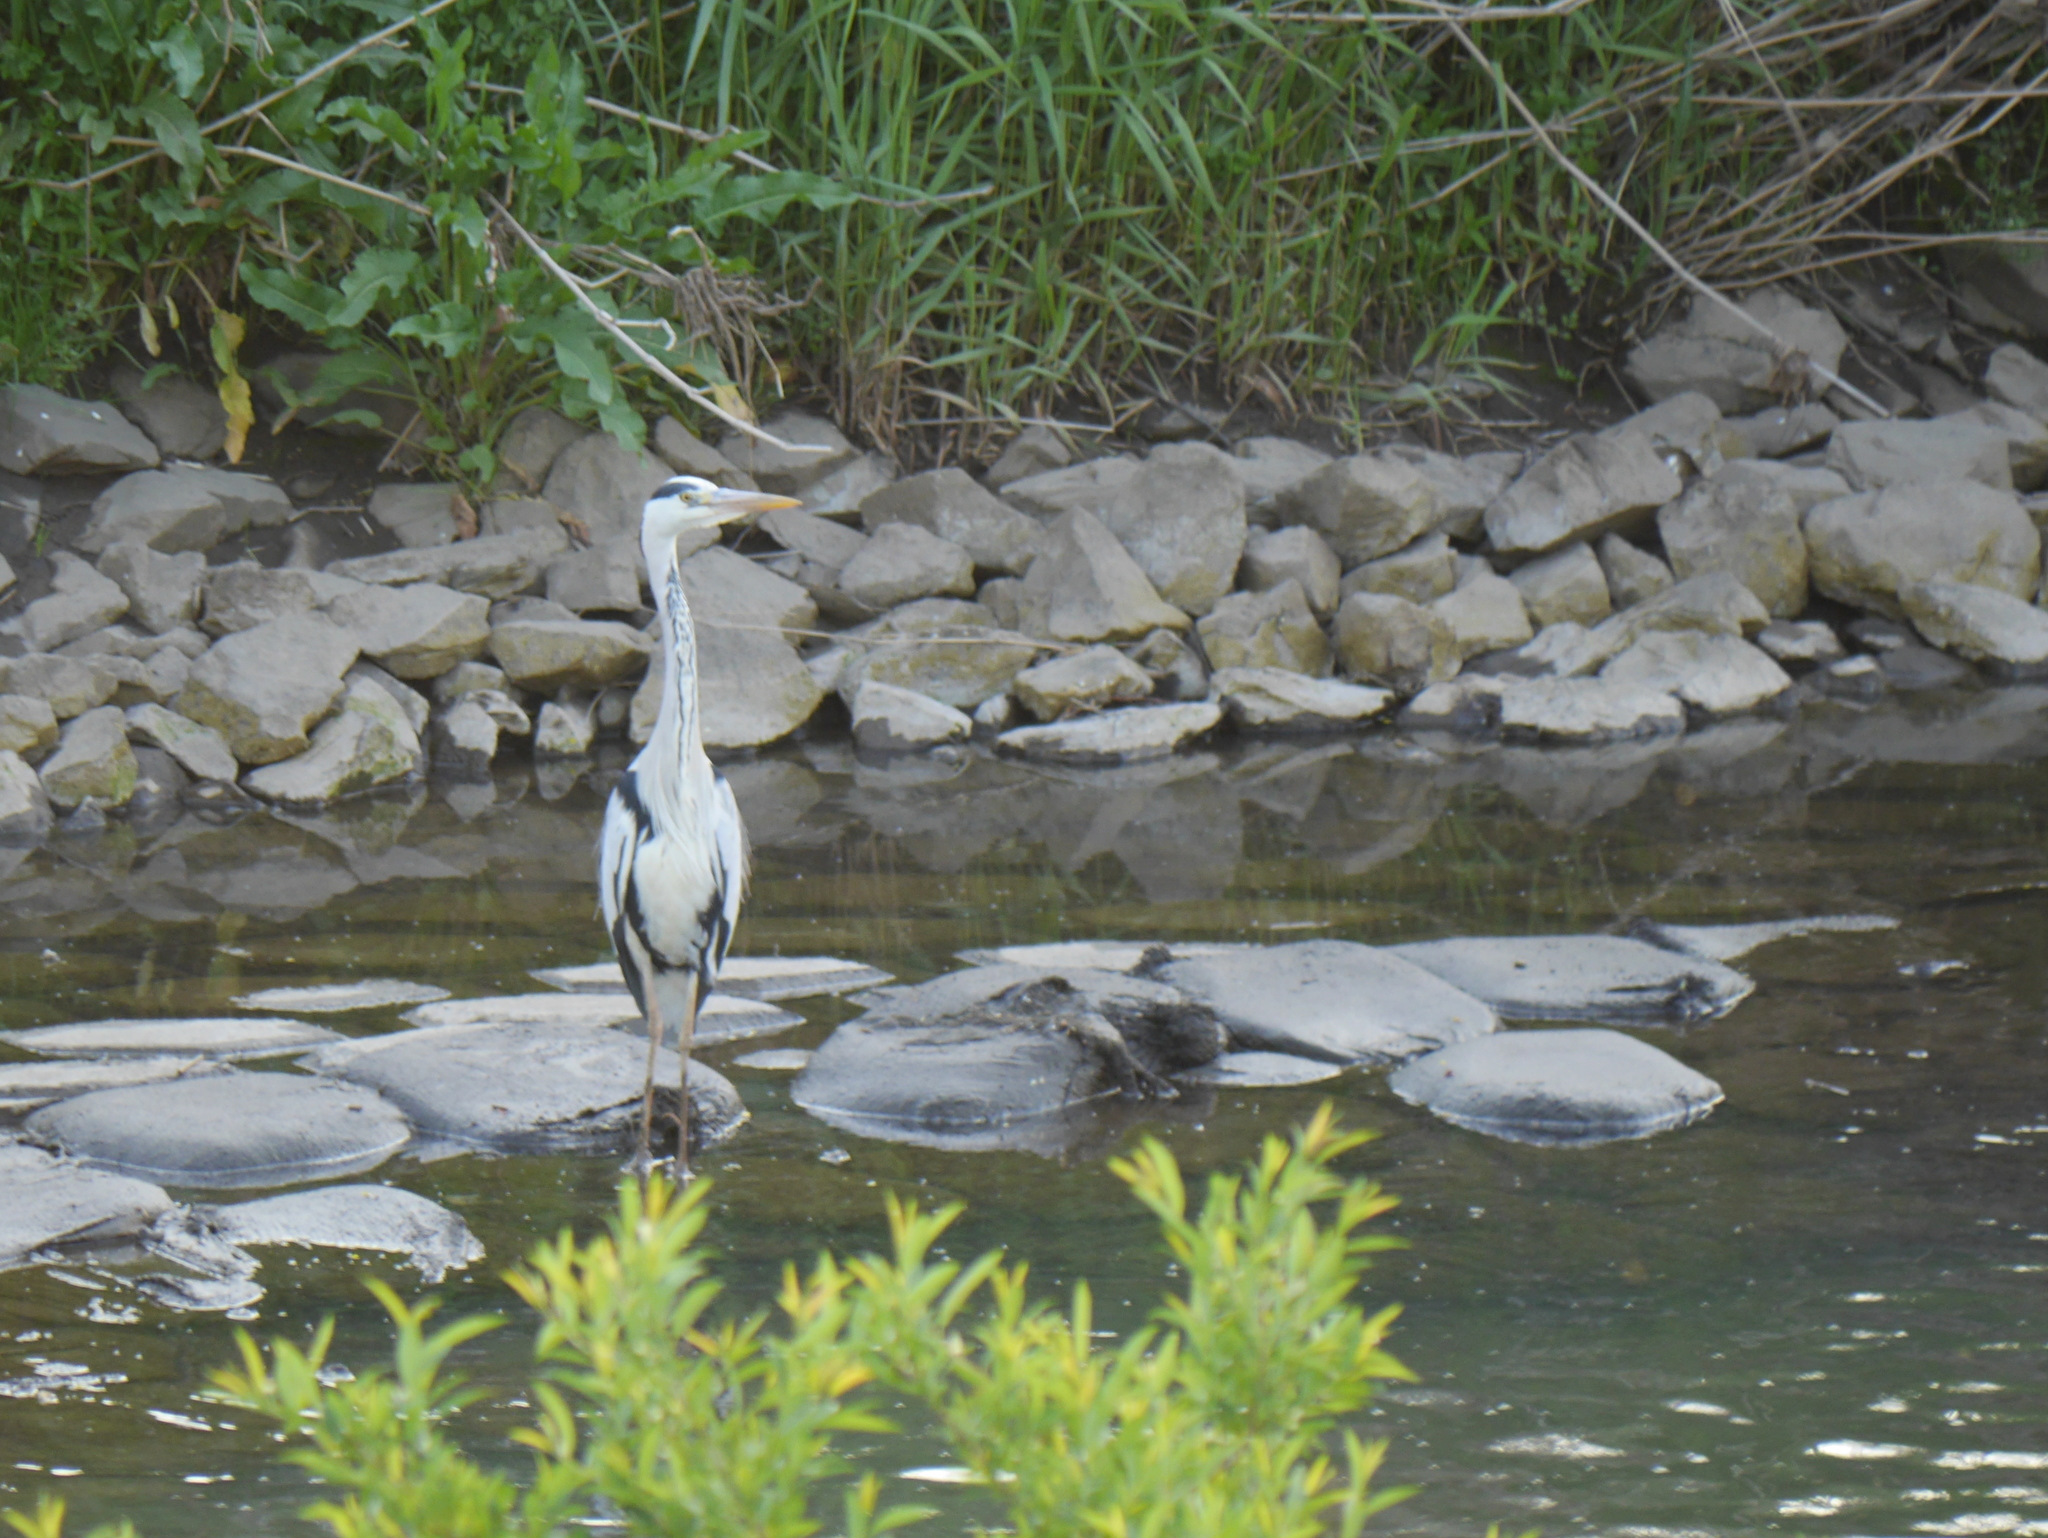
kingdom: Animalia
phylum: Chordata
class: Aves
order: Pelecaniformes
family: Ardeidae
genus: Ardea
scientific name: Ardea cinerea
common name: Grey heron
